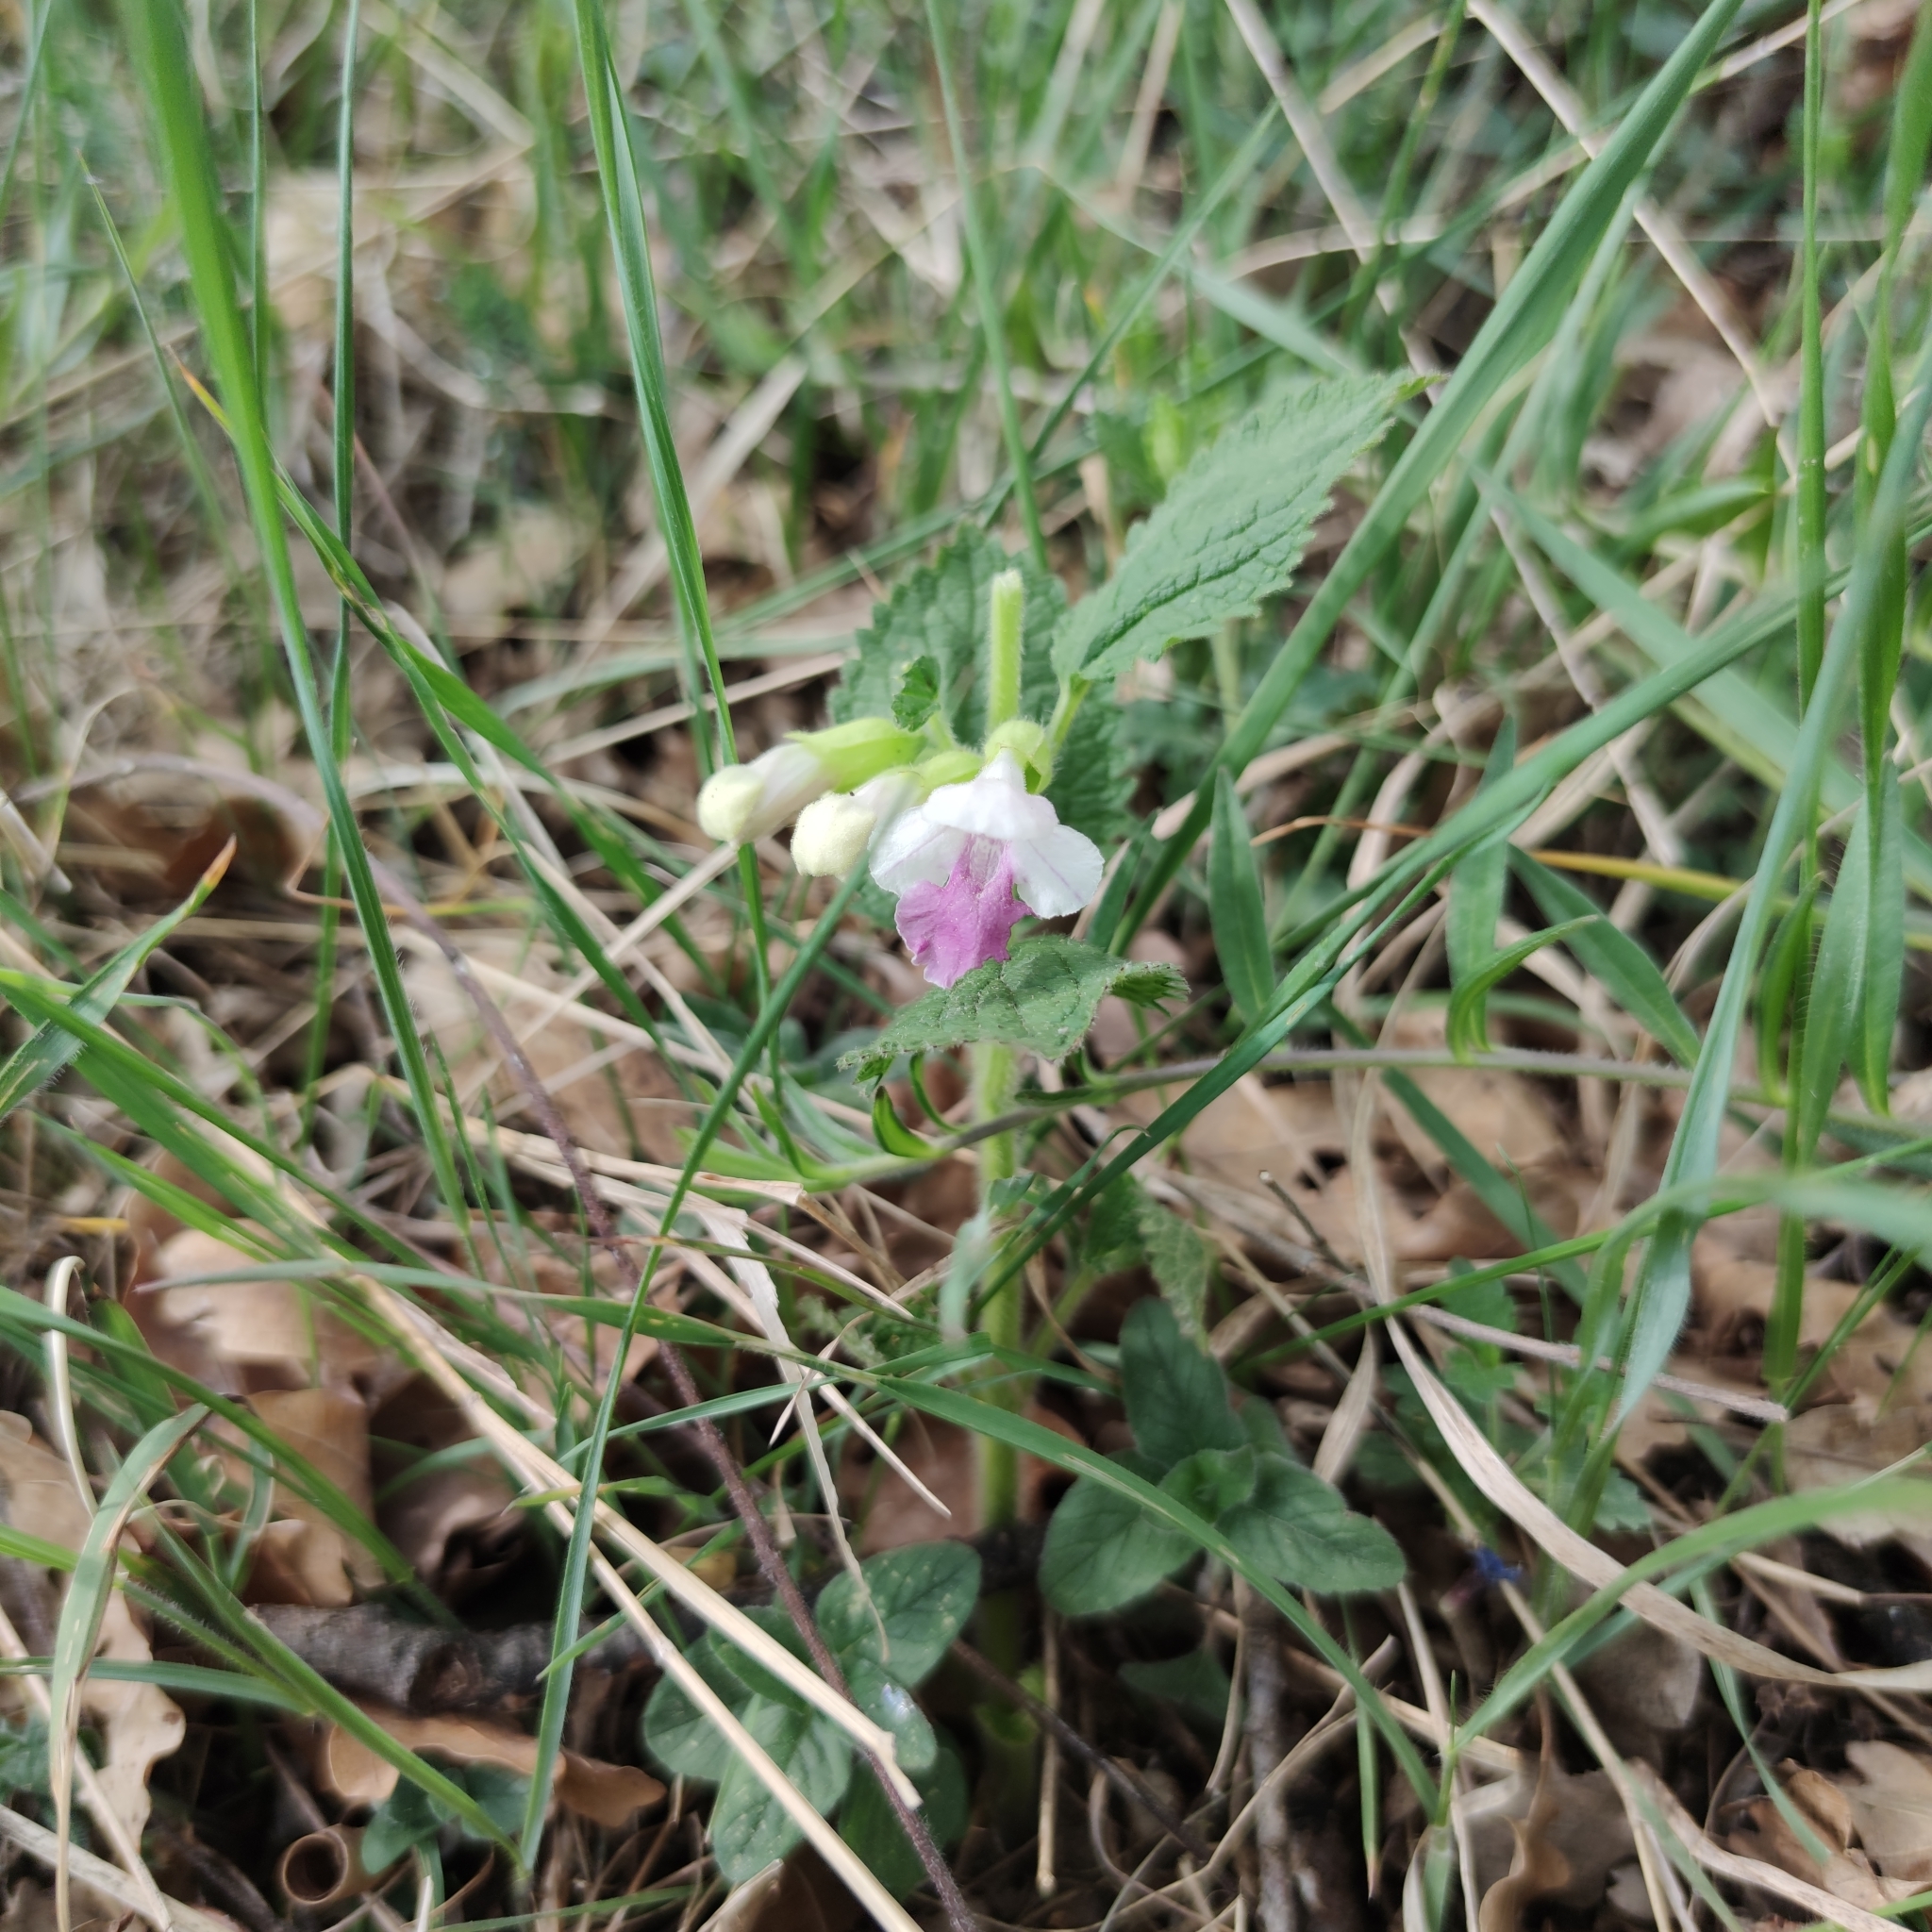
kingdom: Plantae
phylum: Tracheophyta
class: Magnoliopsida
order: Lamiales
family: Lamiaceae
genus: Melittis
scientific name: Melittis melissophyllum
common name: Bastard balm
